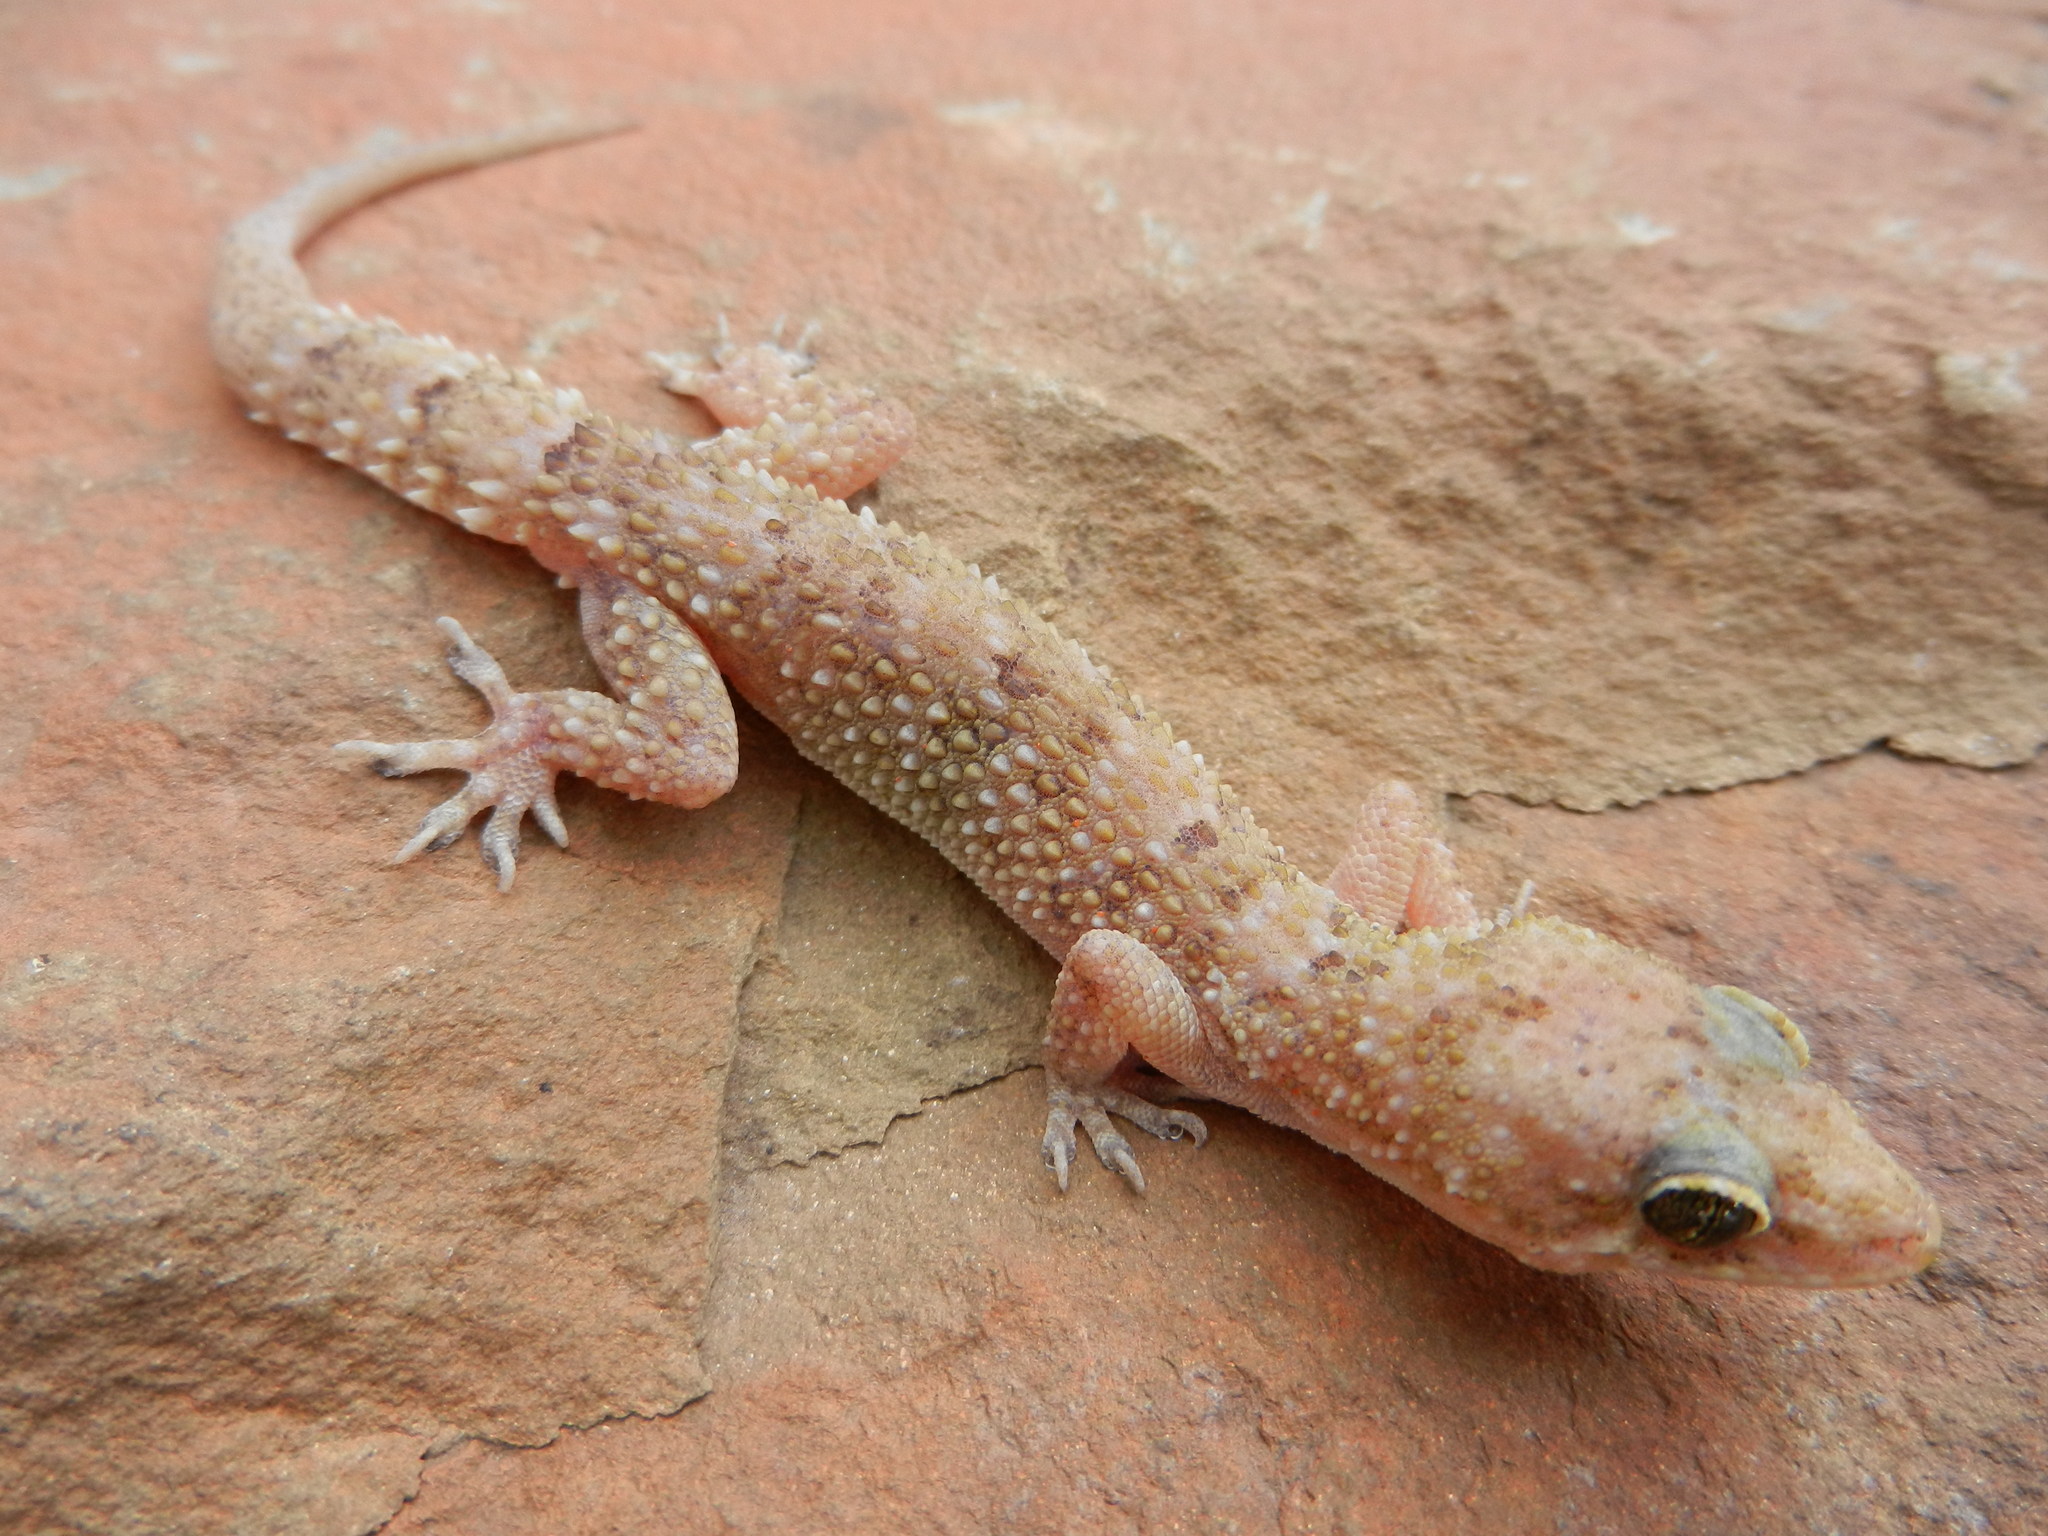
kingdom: Animalia
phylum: Chordata
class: Squamata
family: Gekkonidae
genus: Hemidactylus
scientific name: Hemidactylus angulatus
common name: Brook's house gecko
